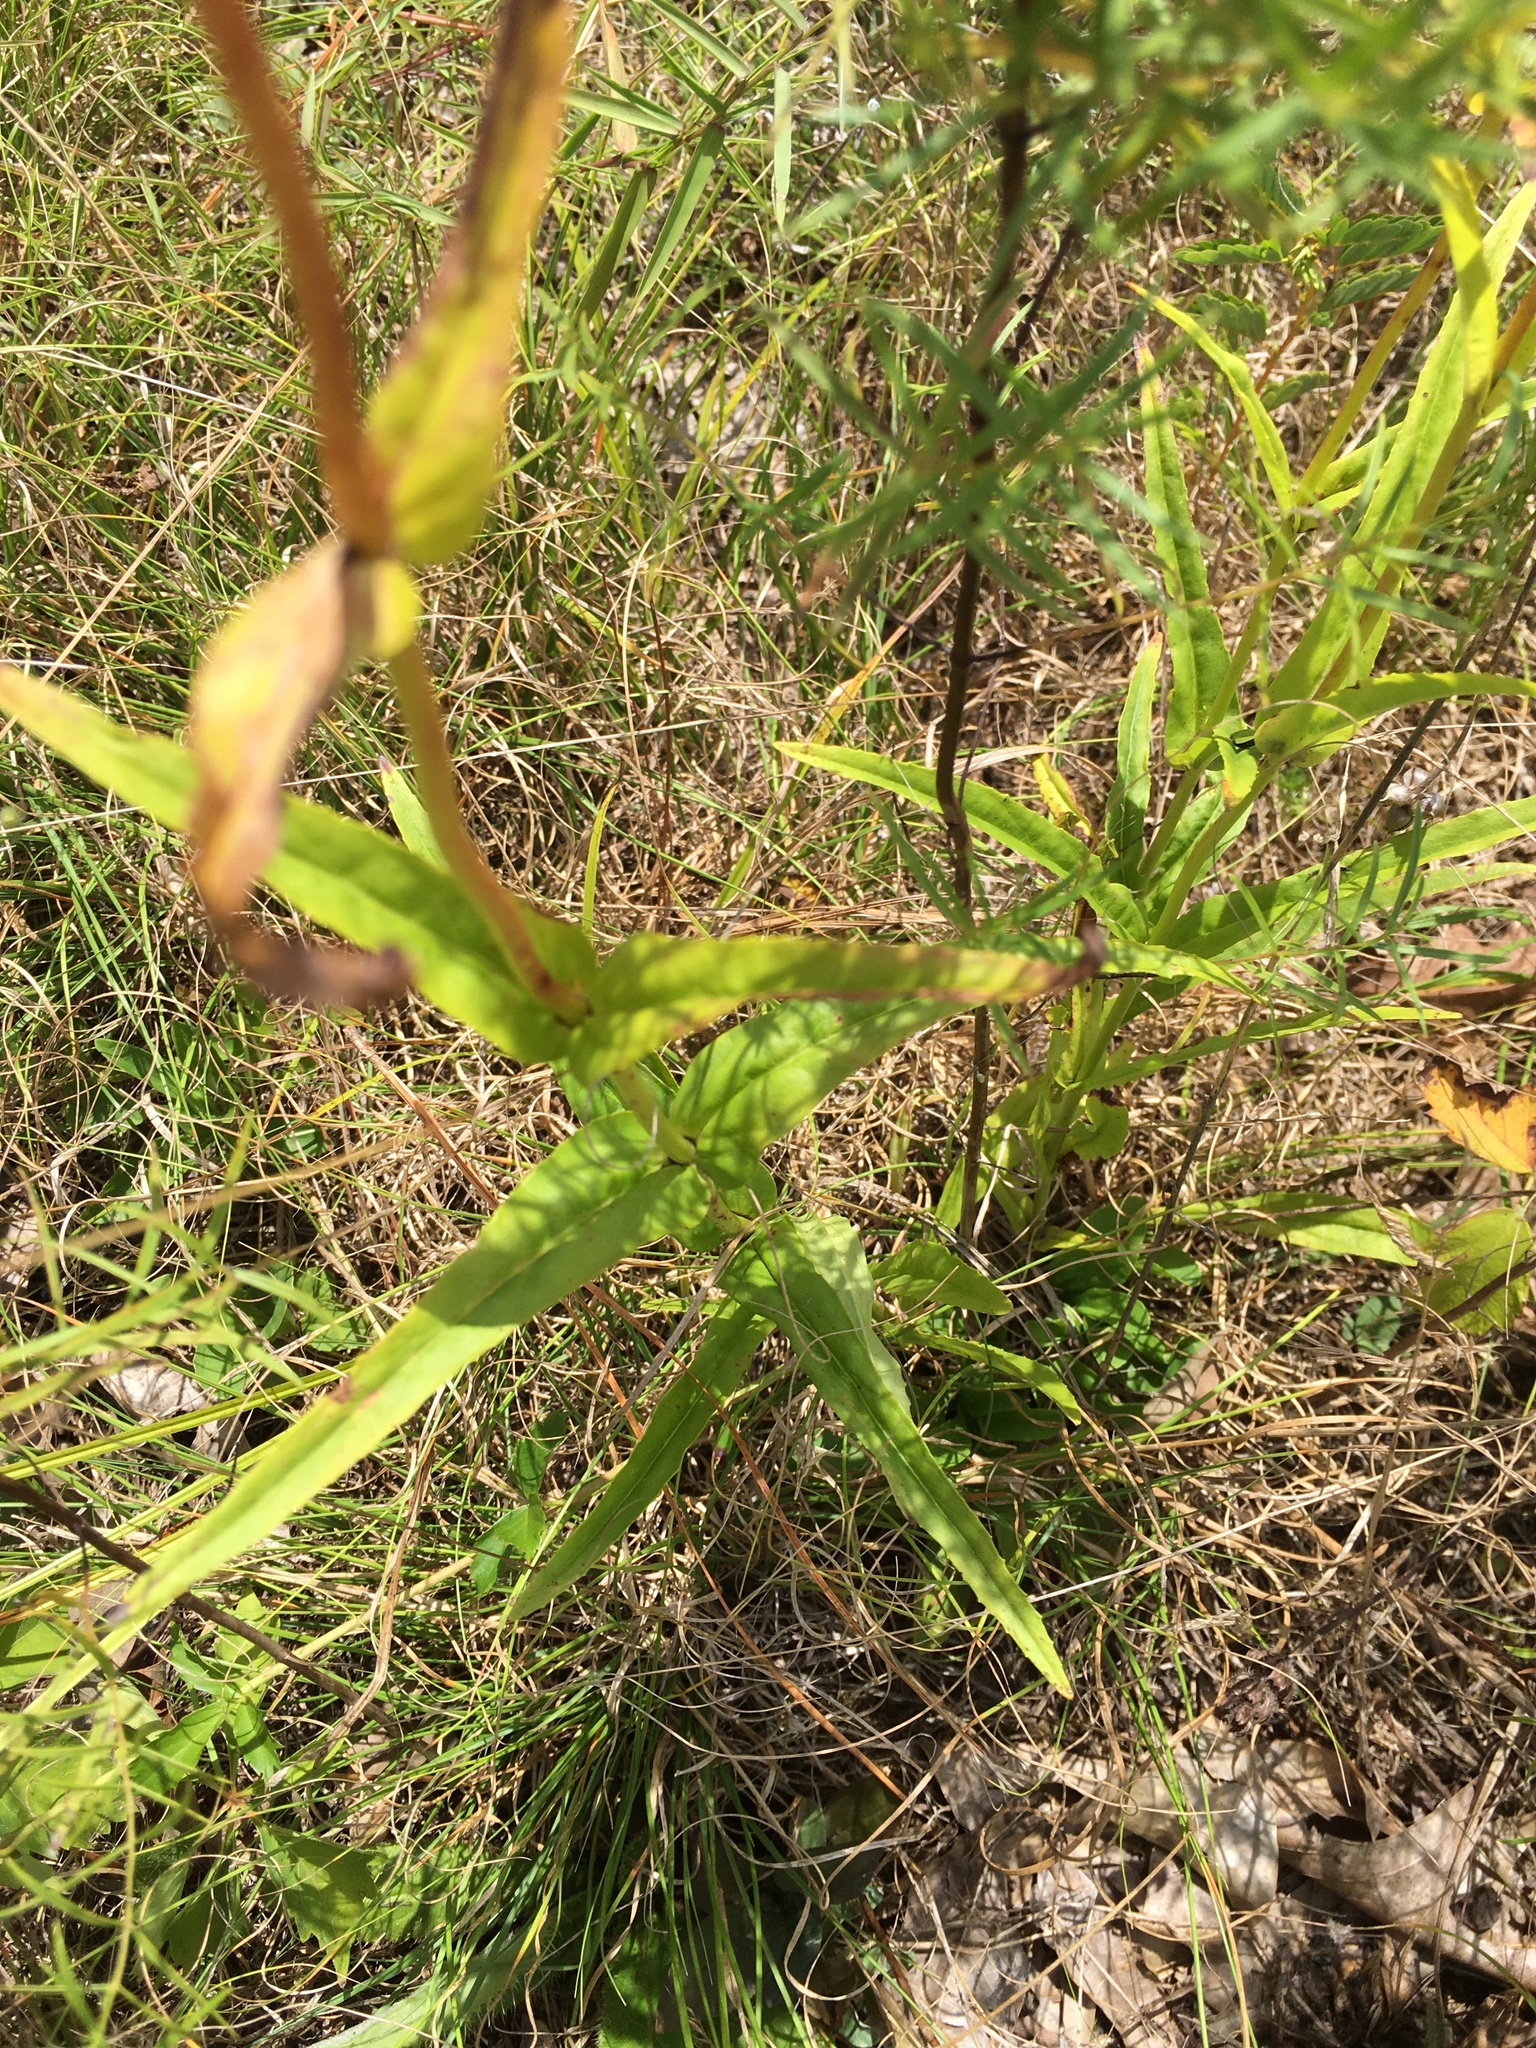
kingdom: Plantae
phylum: Tracheophyta
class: Magnoliopsida
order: Lamiales
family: Plantaginaceae
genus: Penstemon
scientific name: Penstemon laevigatus
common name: Eastern beardtongue
